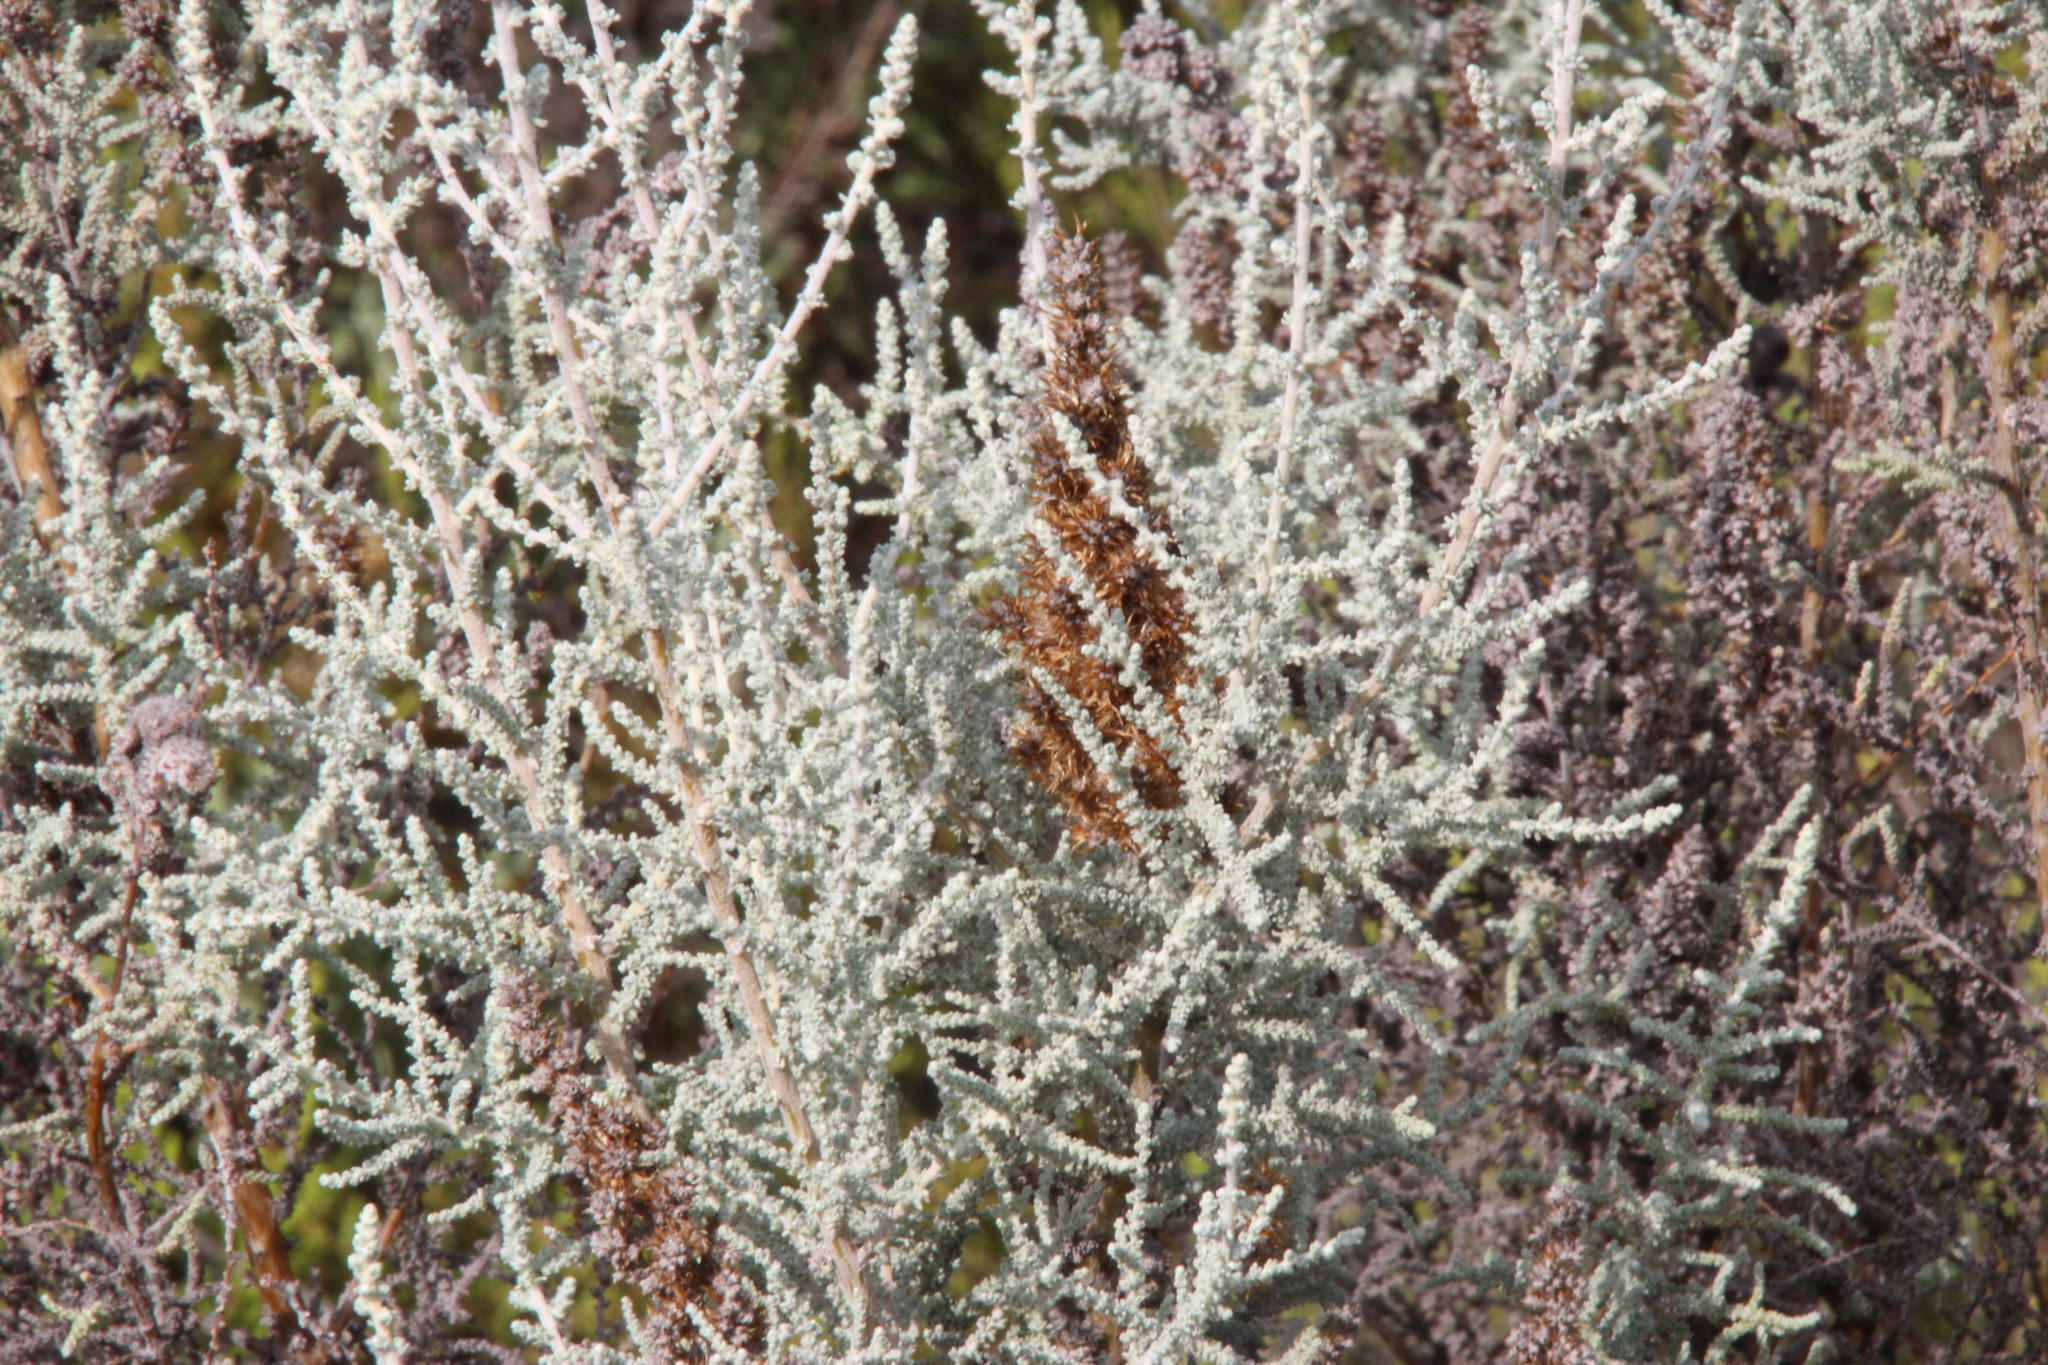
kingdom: Plantae
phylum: Tracheophyta
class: Magnoliopsida
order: Asterales
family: Asteraceae
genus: Seriphium
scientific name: Seriphium plumosum
